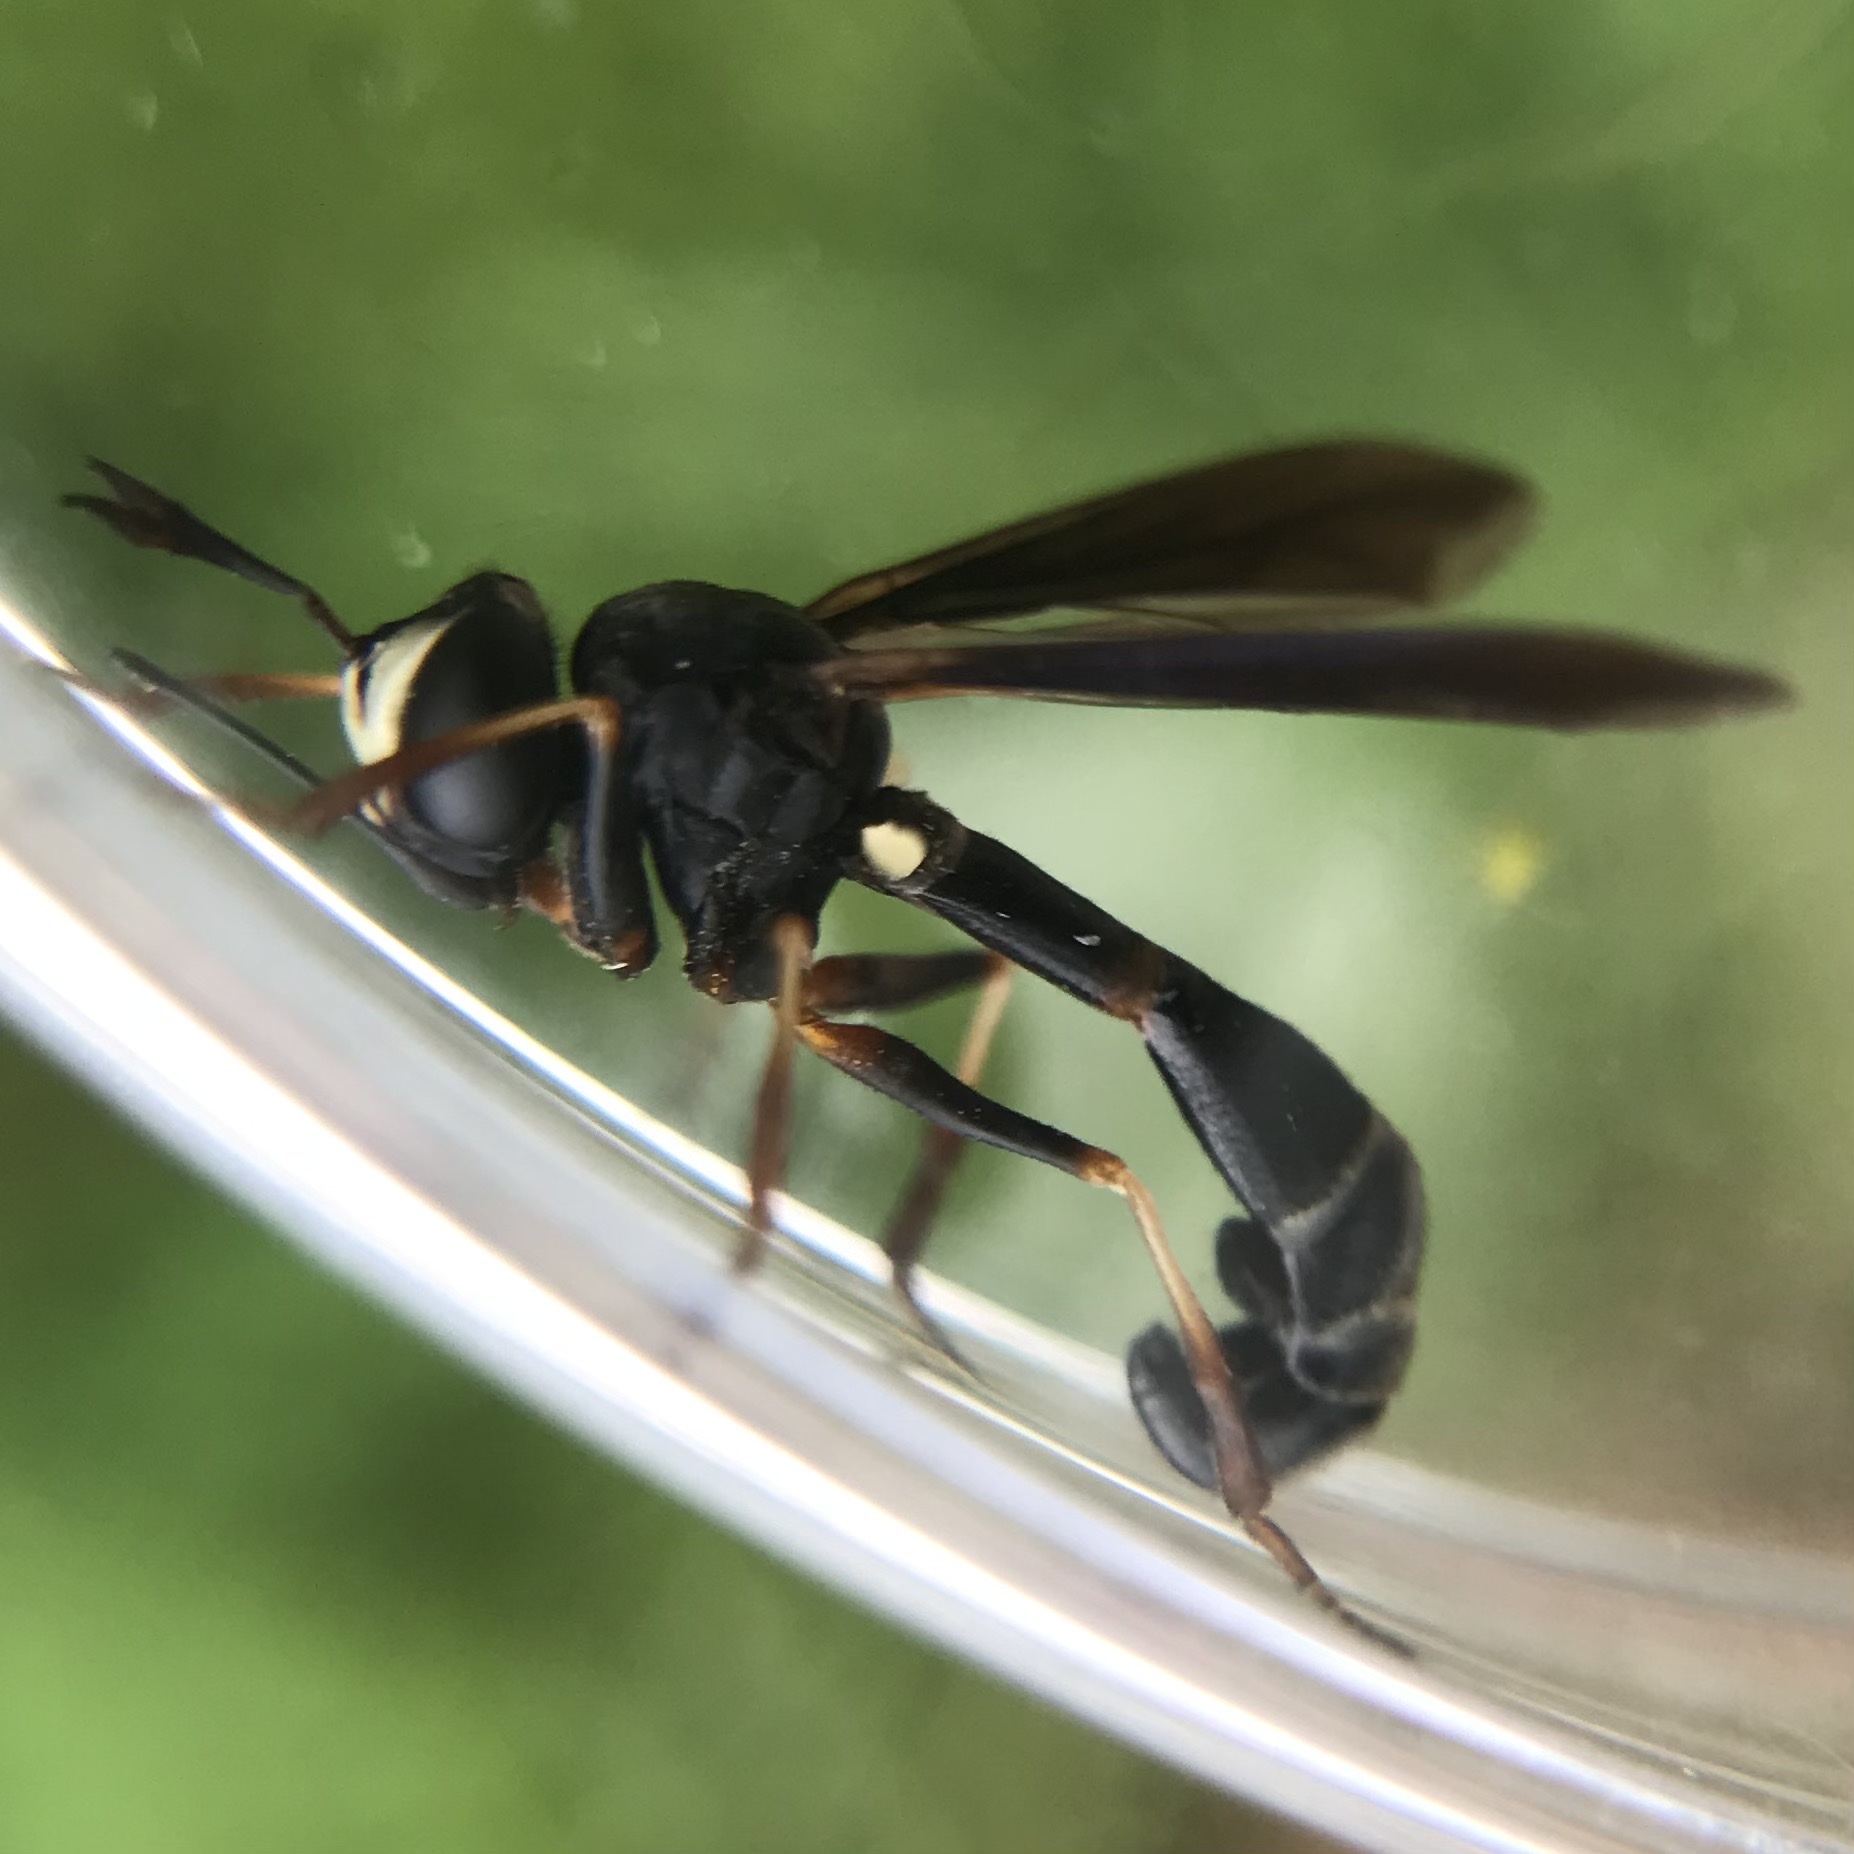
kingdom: Animalia
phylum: Arthropoda
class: Insecta
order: Diptera
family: Conopidae
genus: Physocephala
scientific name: Physocephala tibialis
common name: Common eastern physocephala
